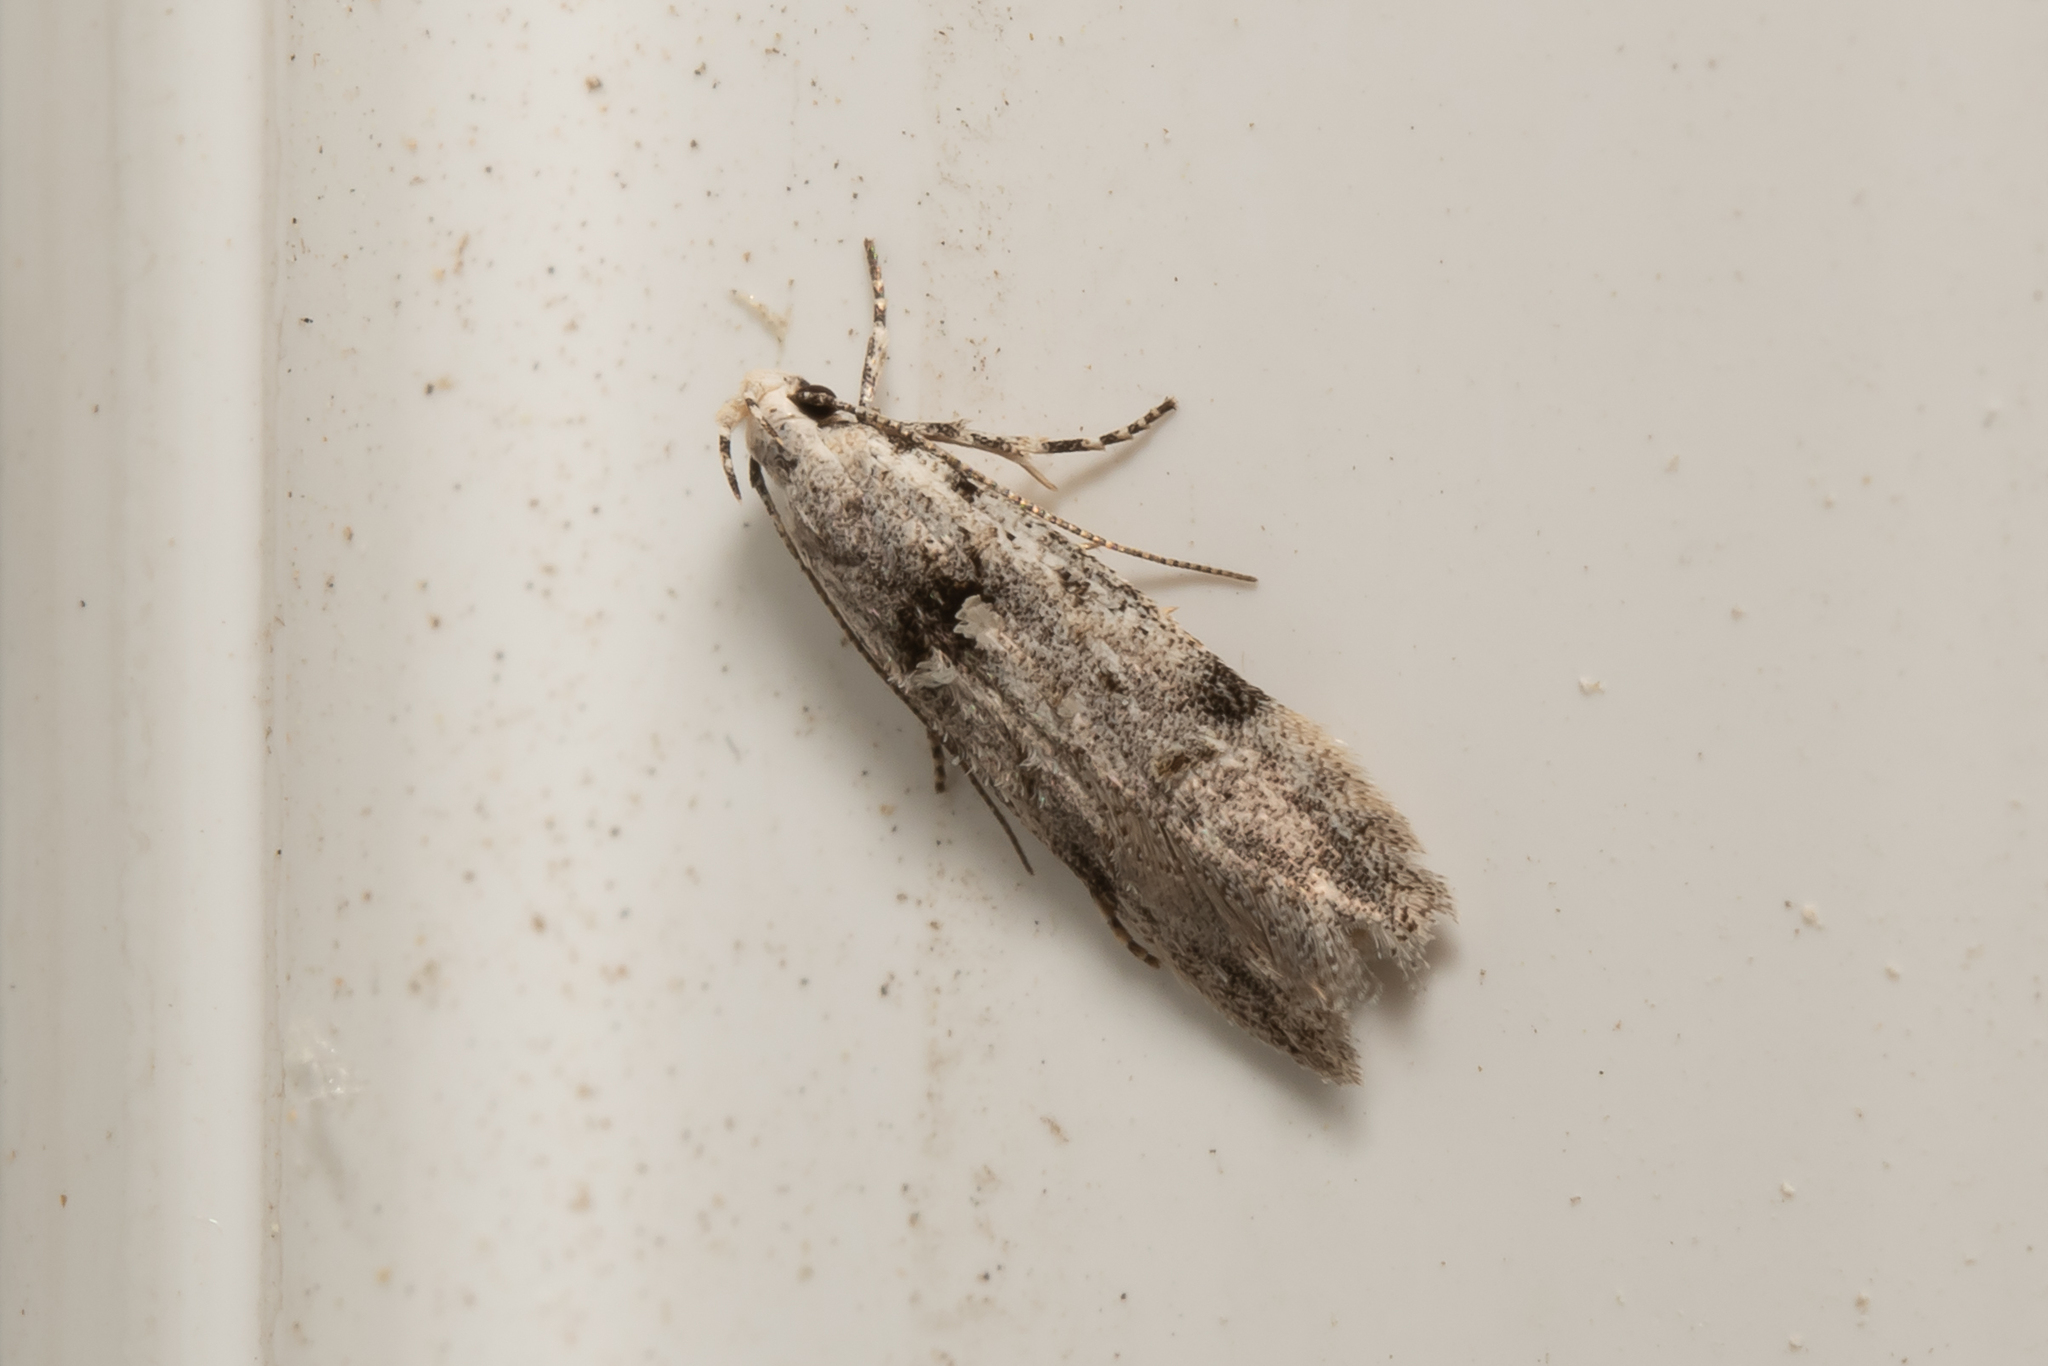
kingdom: Animalia
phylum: Arthropoda
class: Insecta
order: Lepidoptera
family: Gelechiidae
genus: Carpatolechia
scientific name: Carpatolechia alburnella
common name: Suffused groundling
